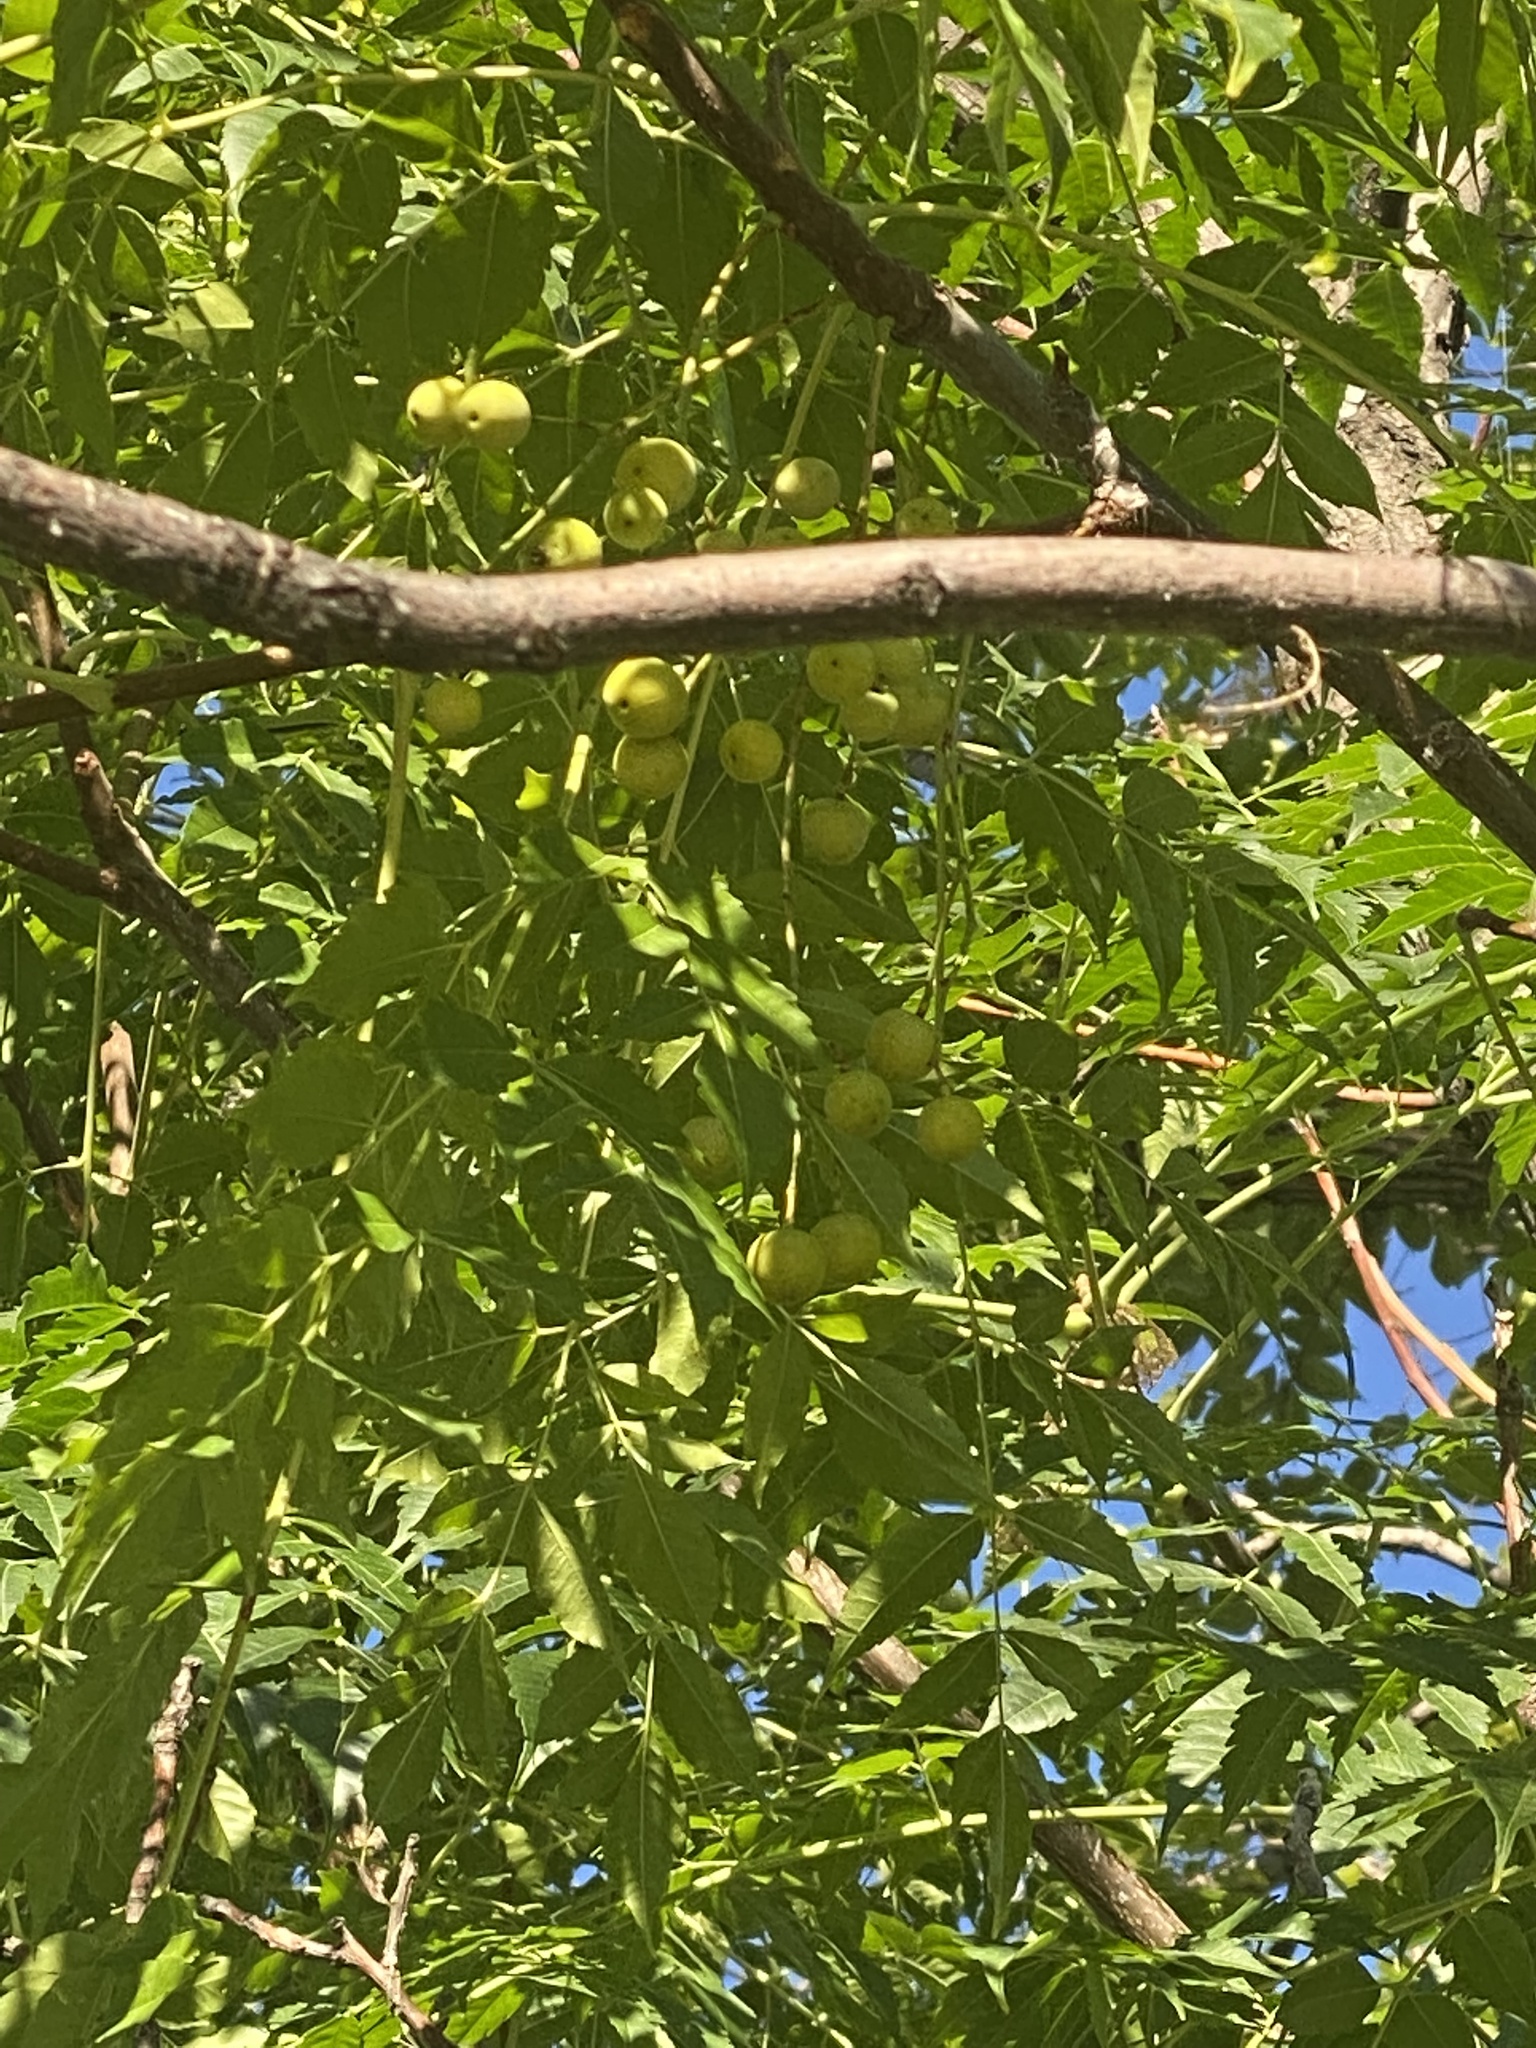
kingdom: Plantae
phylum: Tracheophyta
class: Magnoliopsida
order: Sapindales
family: Meliaceae
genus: Melia
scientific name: Melia azedarach
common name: Chinaberrytree
